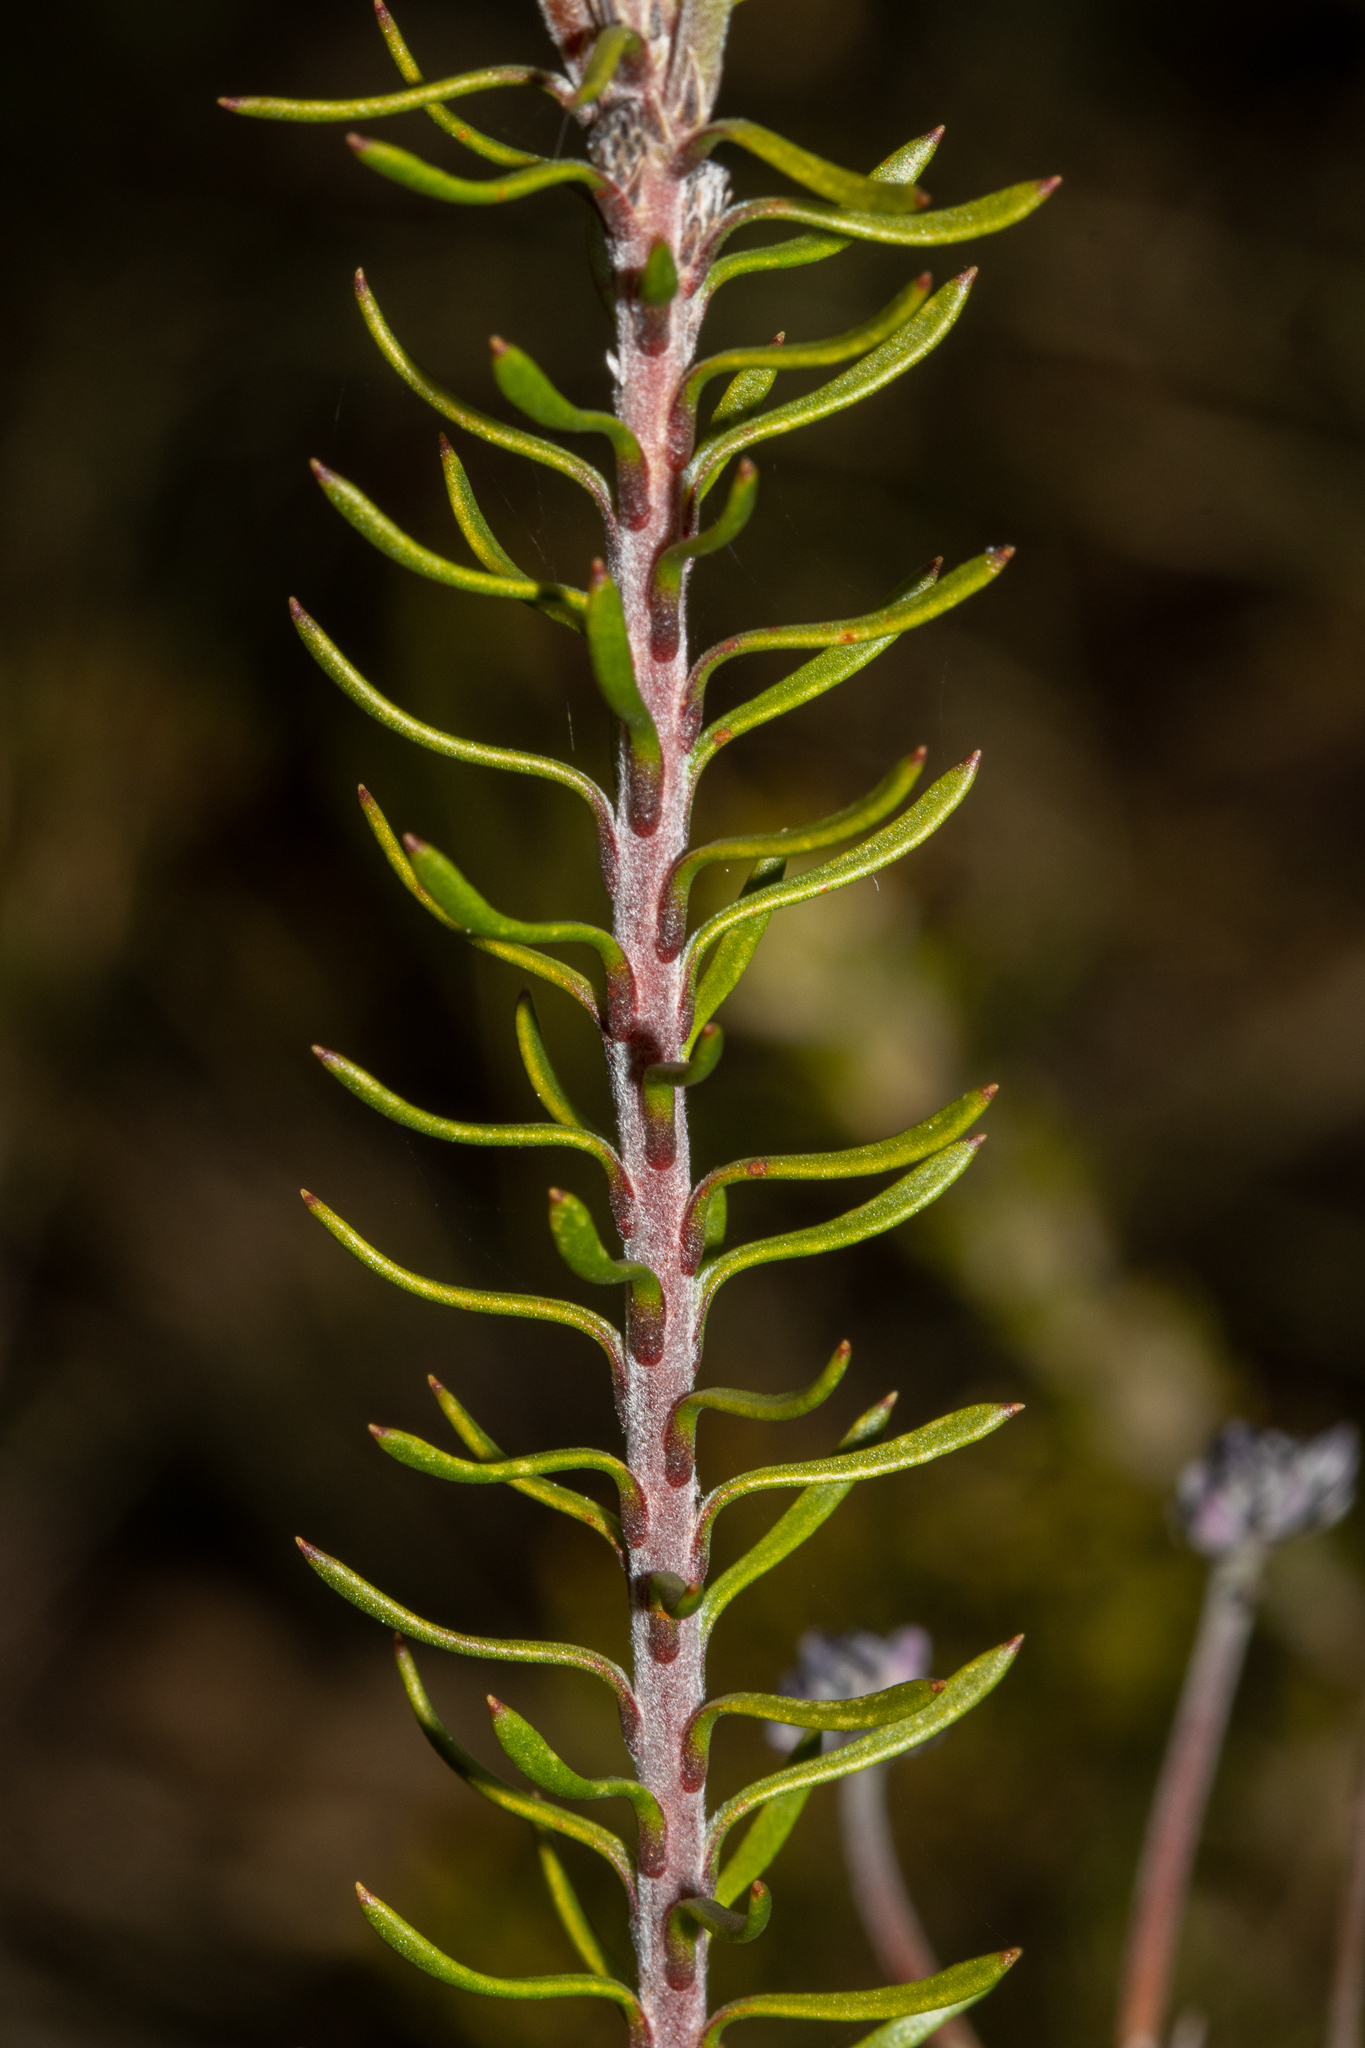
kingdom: Plantae
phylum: Tracheophyta
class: Magnoliopsida
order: Proteales
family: Proteaceae
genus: Conospermum
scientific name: Conospermum patens
